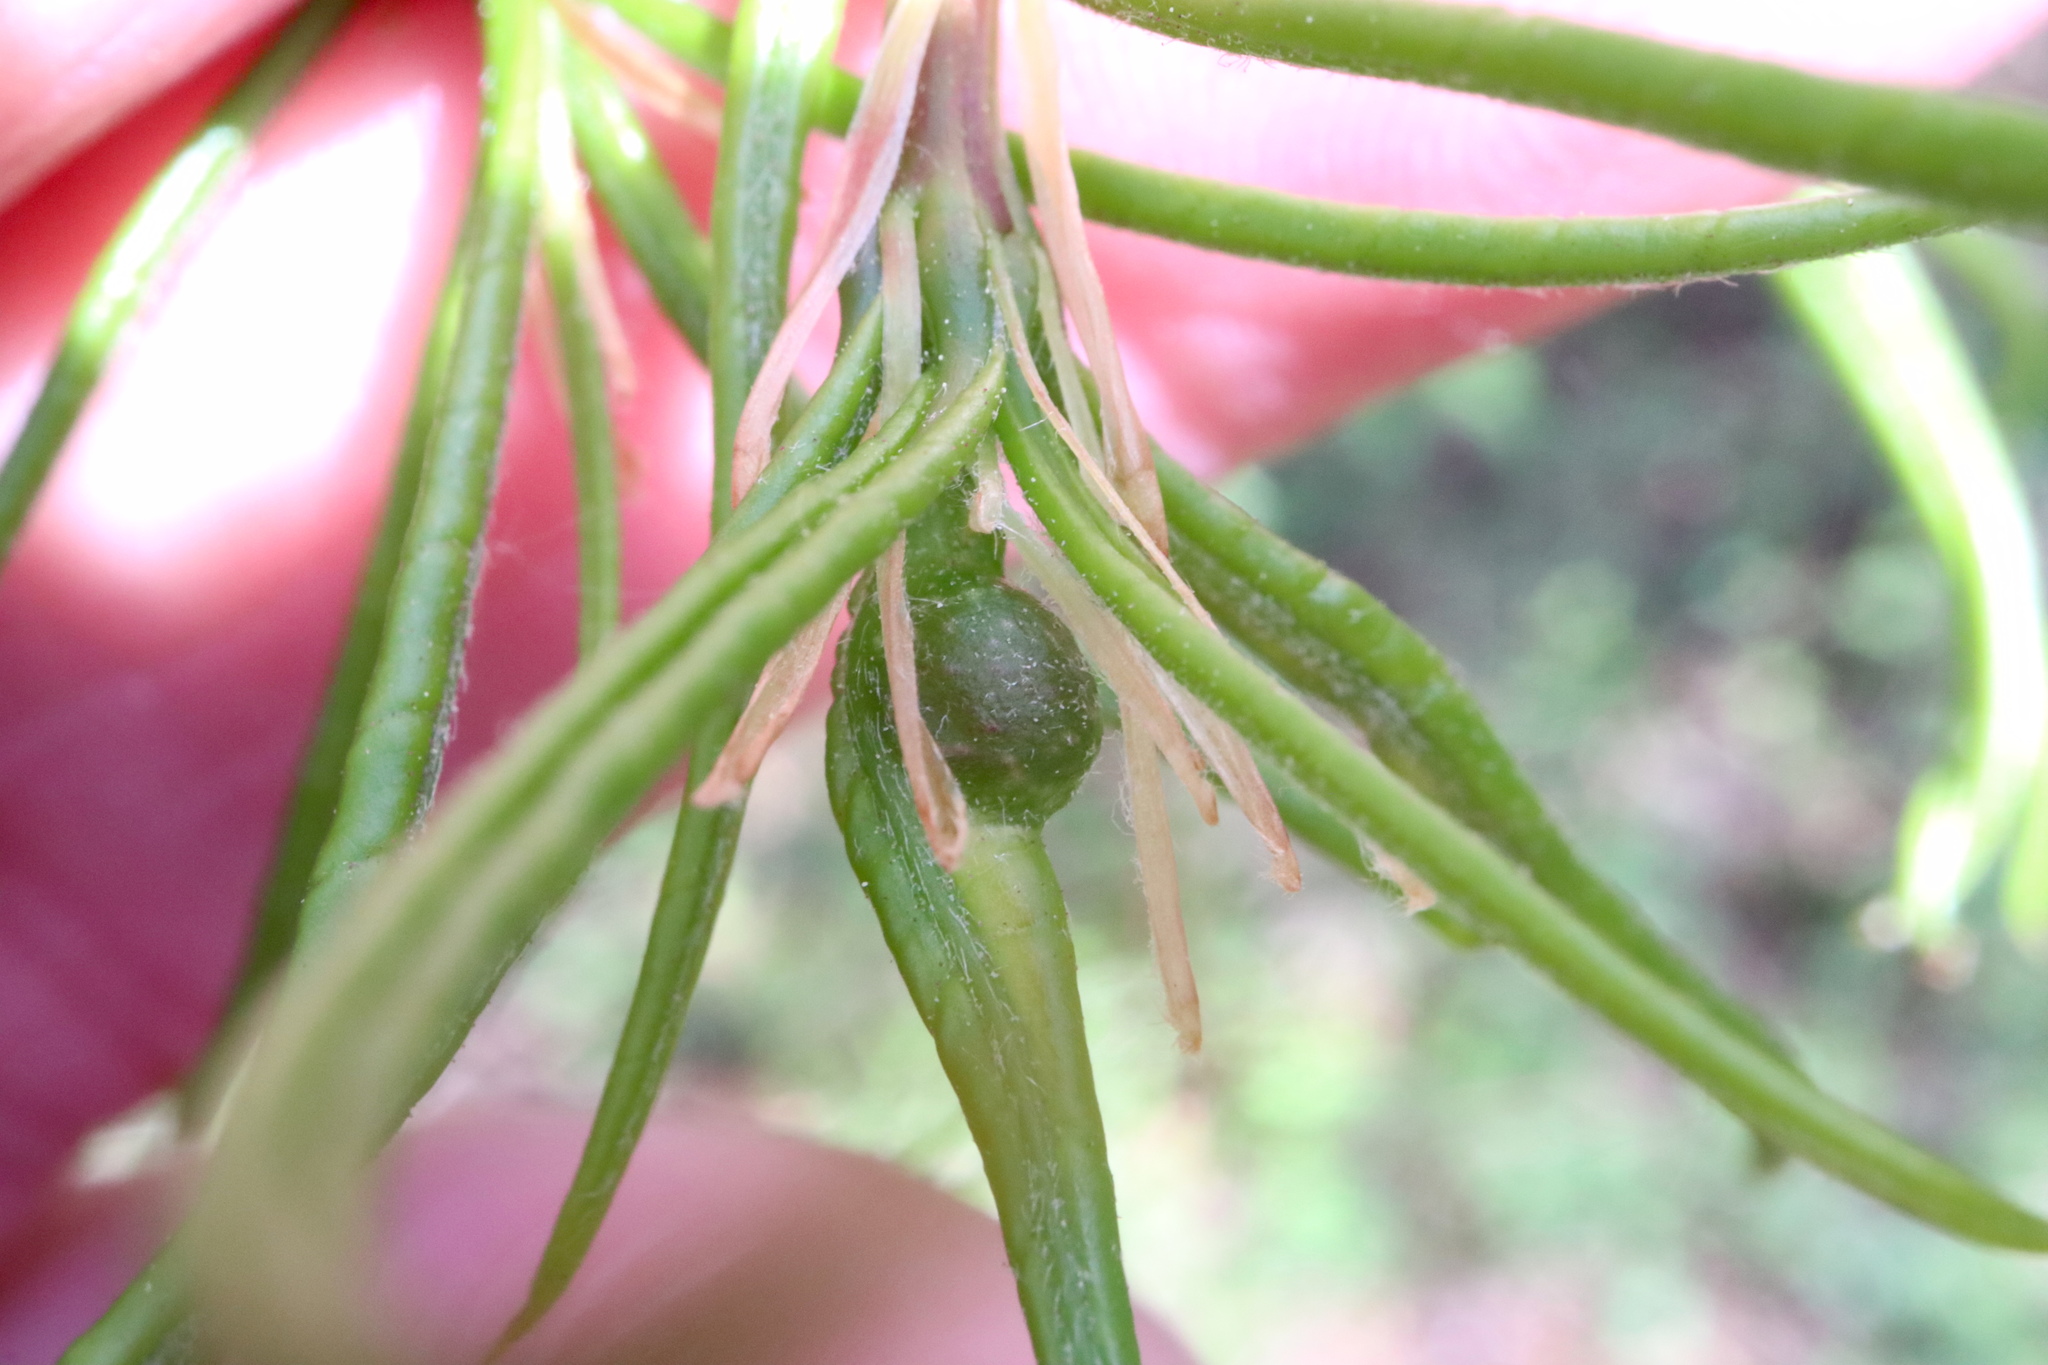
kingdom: Animalia
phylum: Arthropoda
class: Insecta
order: Hymenoptera
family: Cynipidae
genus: Dryocosmus
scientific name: Dryocosmus
